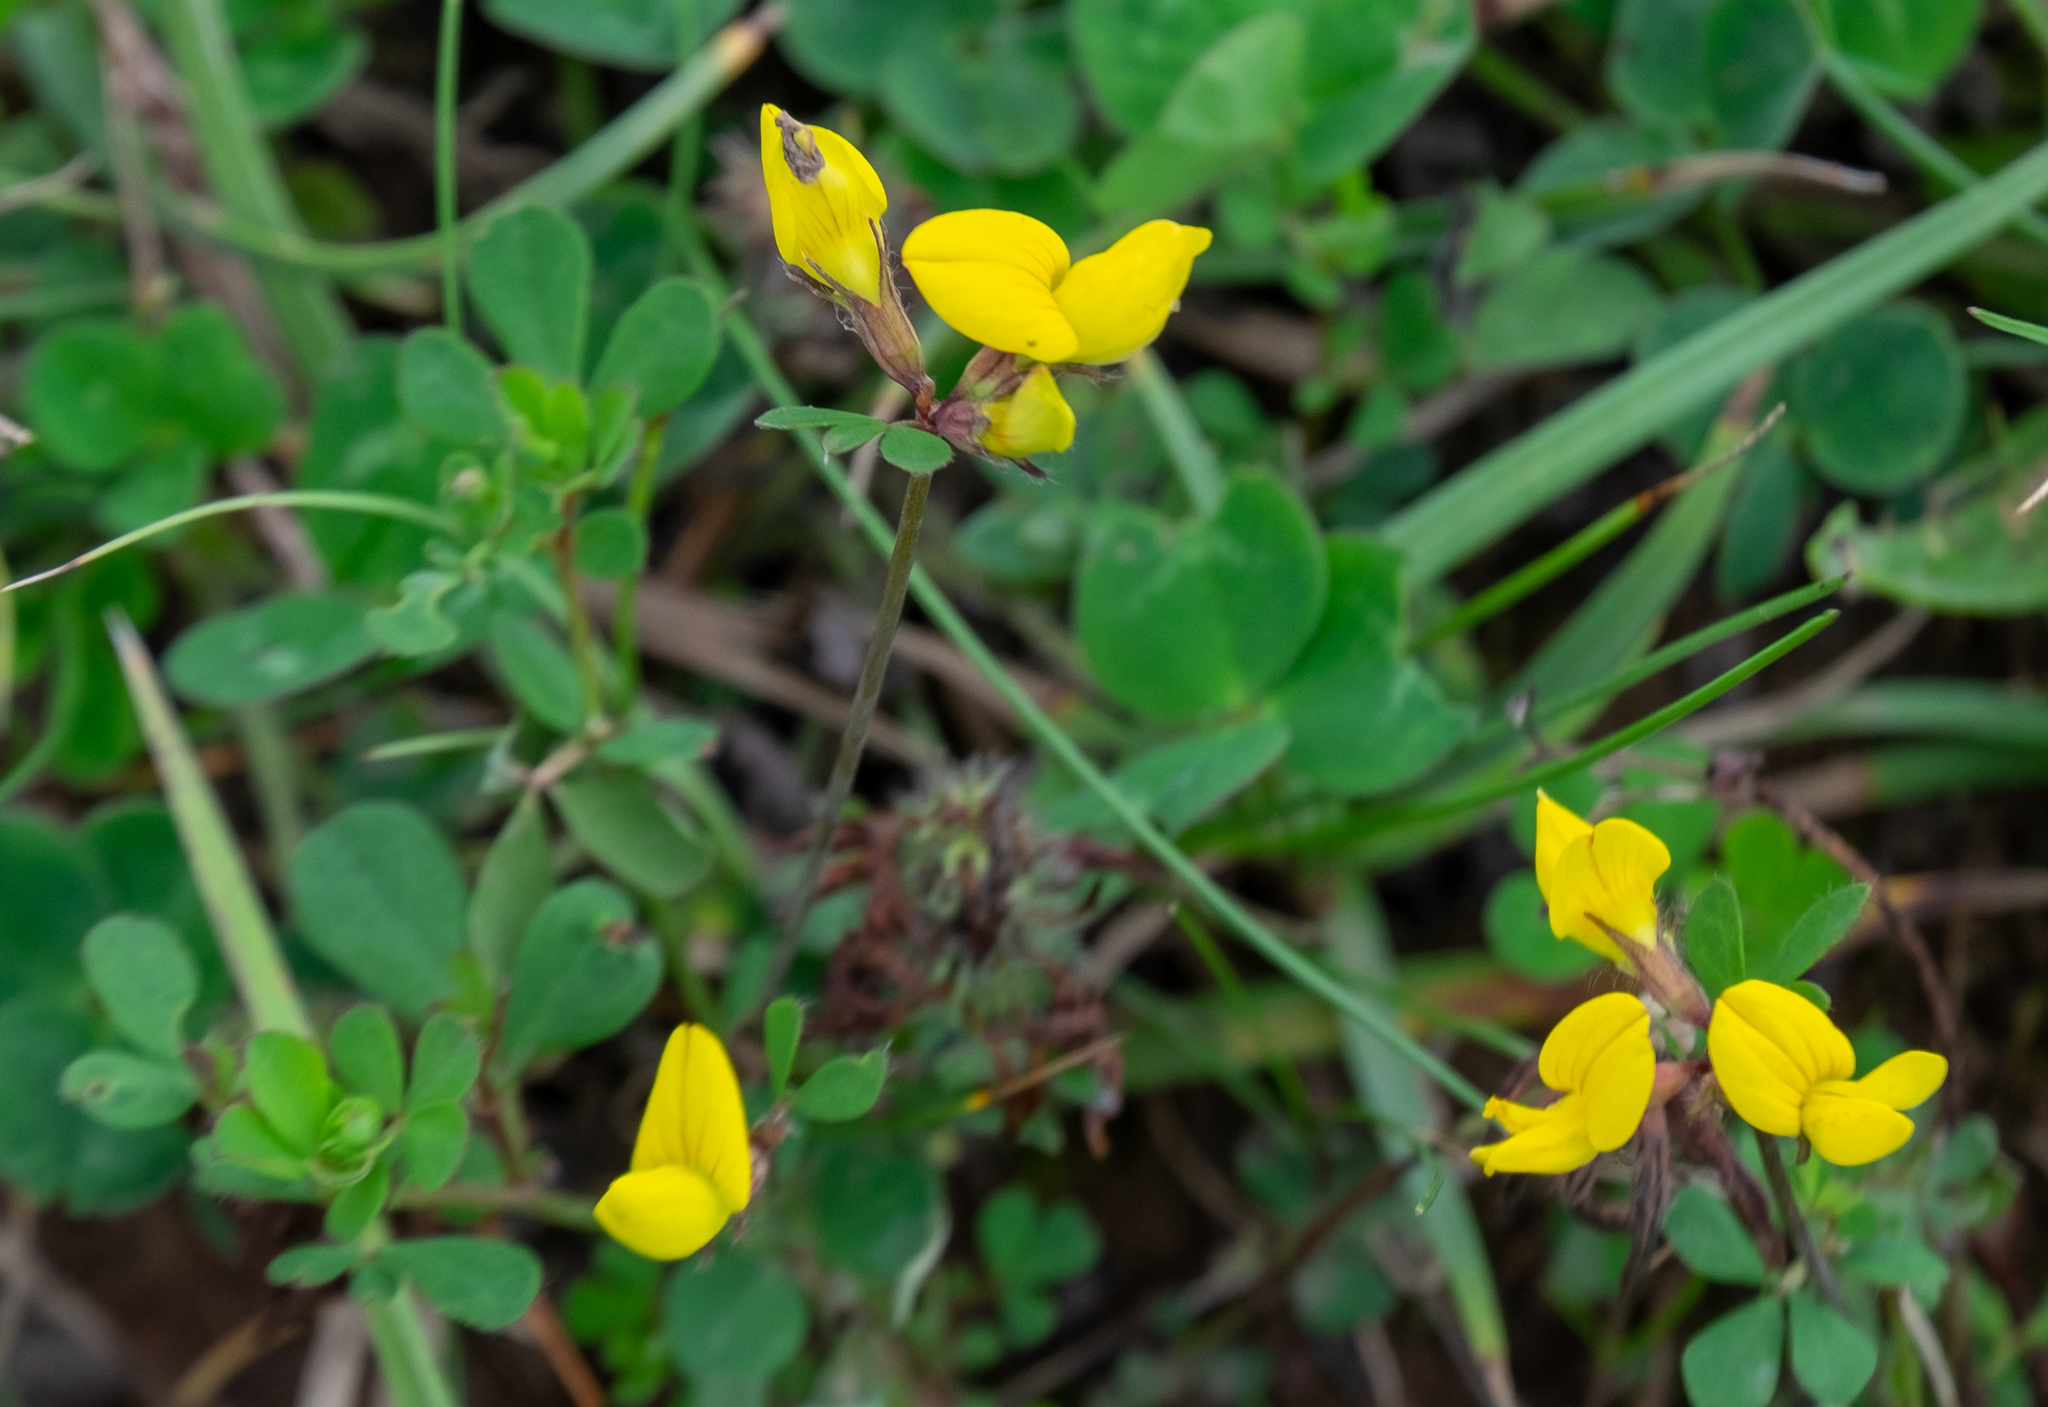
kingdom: Plantae
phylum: Tracheophyta
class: Magnoliopsida
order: Fabales
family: Fabaceae
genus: Lotus
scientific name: Lotus corniculatus
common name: Common bird's-foot-trefoil
